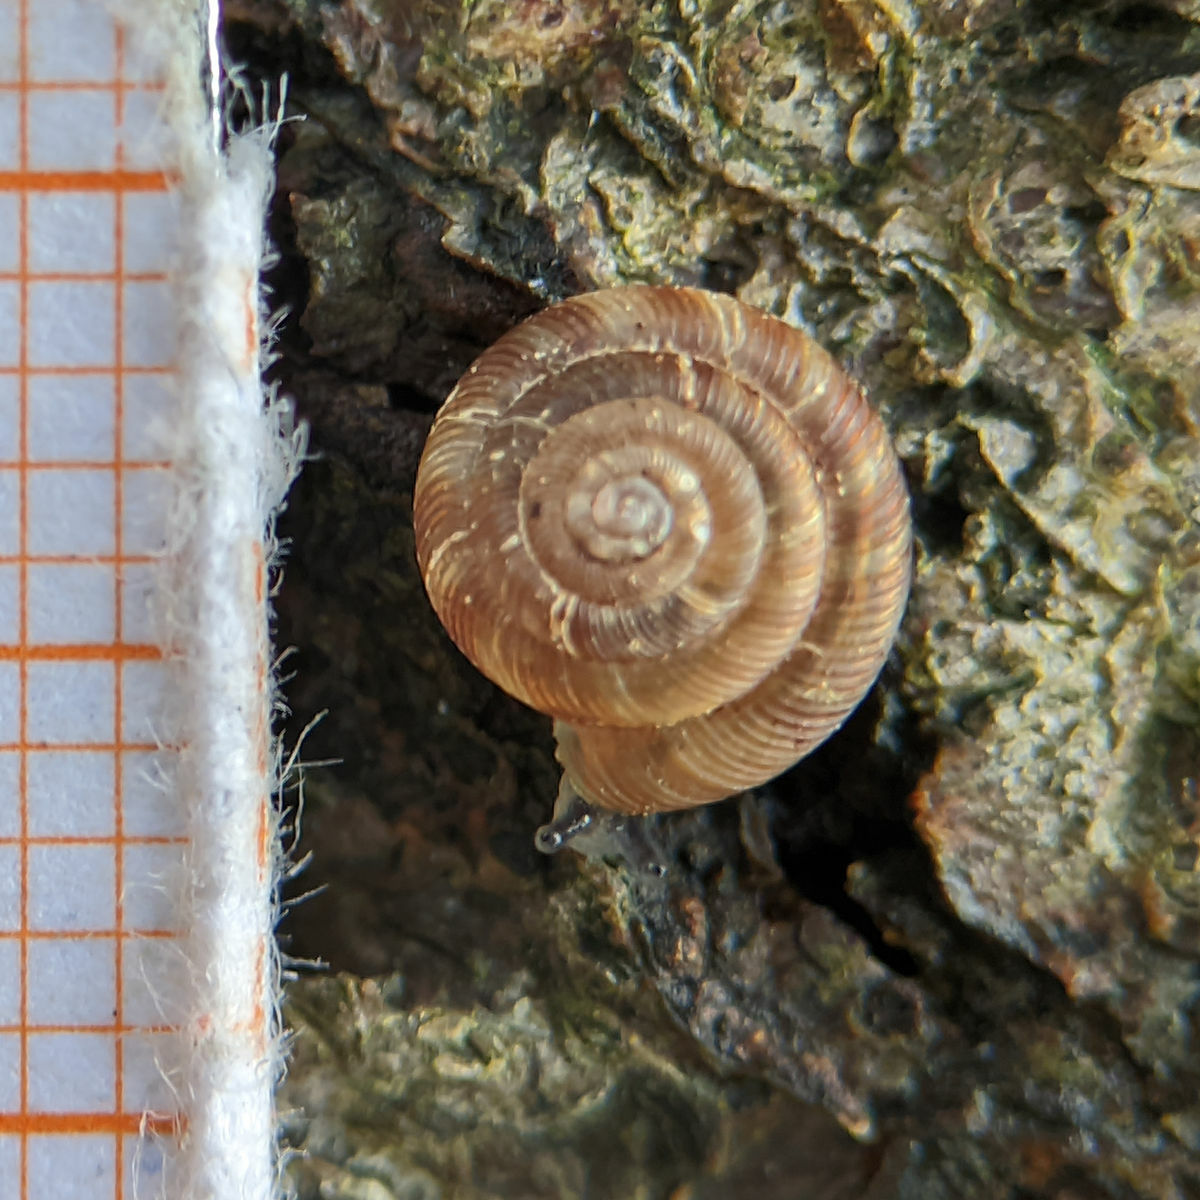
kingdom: Animalia
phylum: Mollusca
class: Gastropoda
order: Stylommatophora
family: Discidae
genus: Discus
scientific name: Discus rotundatus
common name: Rounded snail
